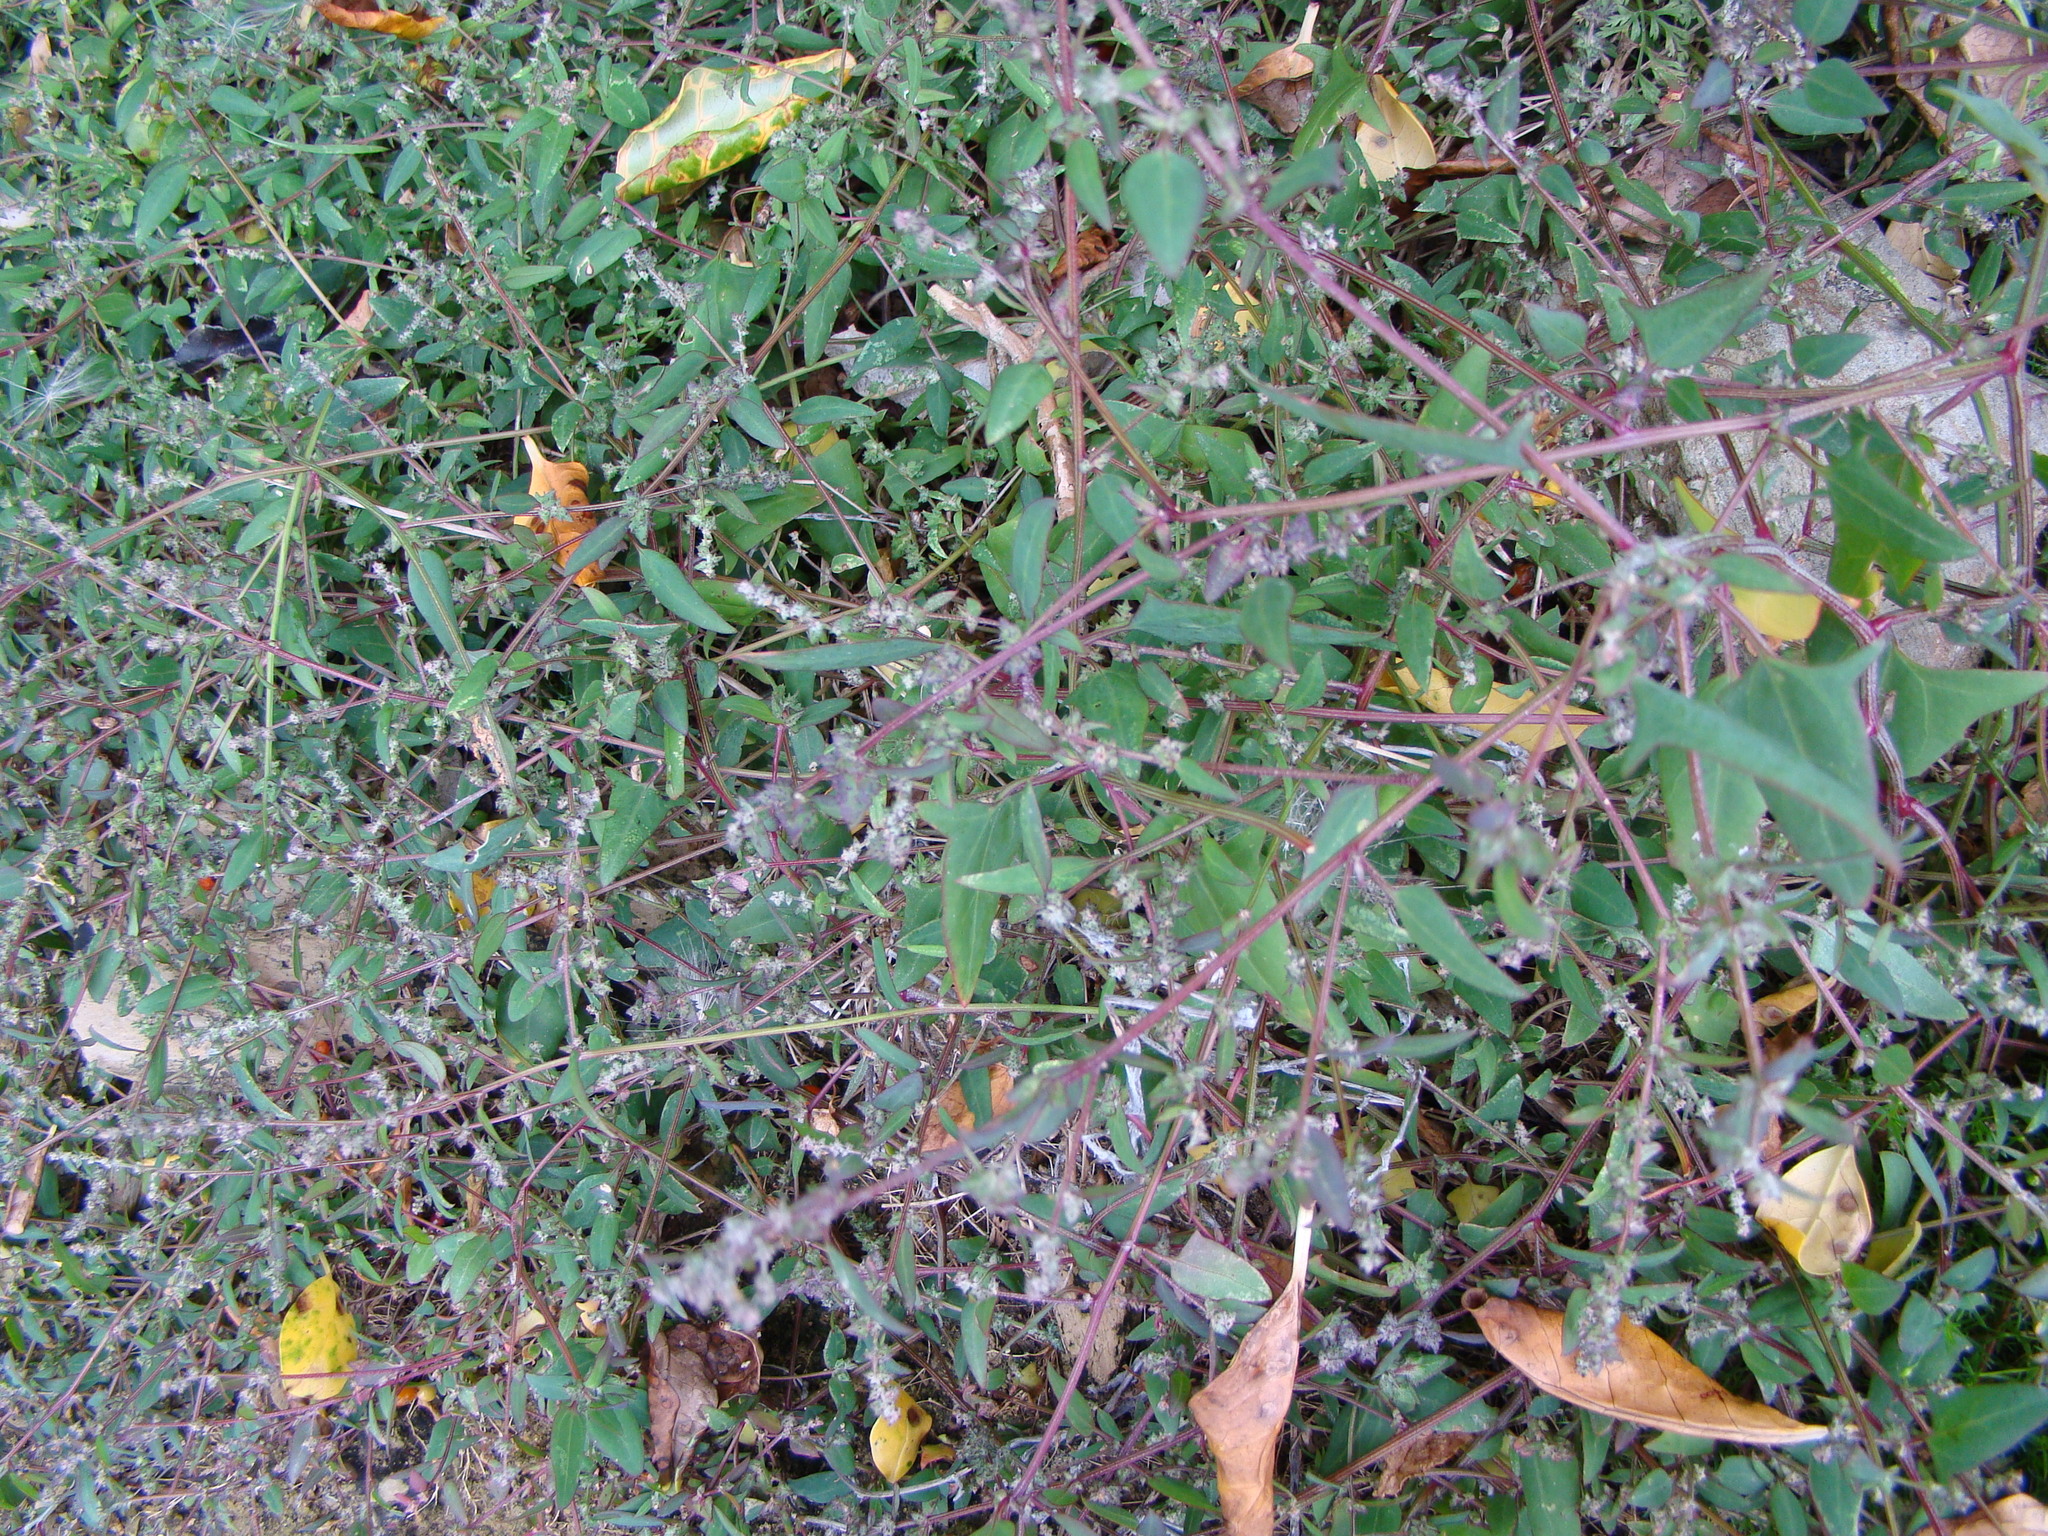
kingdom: Plantae
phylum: Tracheophyta
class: Magnoliopsida
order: Caryophyllales
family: Amaranthaceae
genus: Atriplex
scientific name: Atriplex prostrata
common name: Spear-leaved orache
